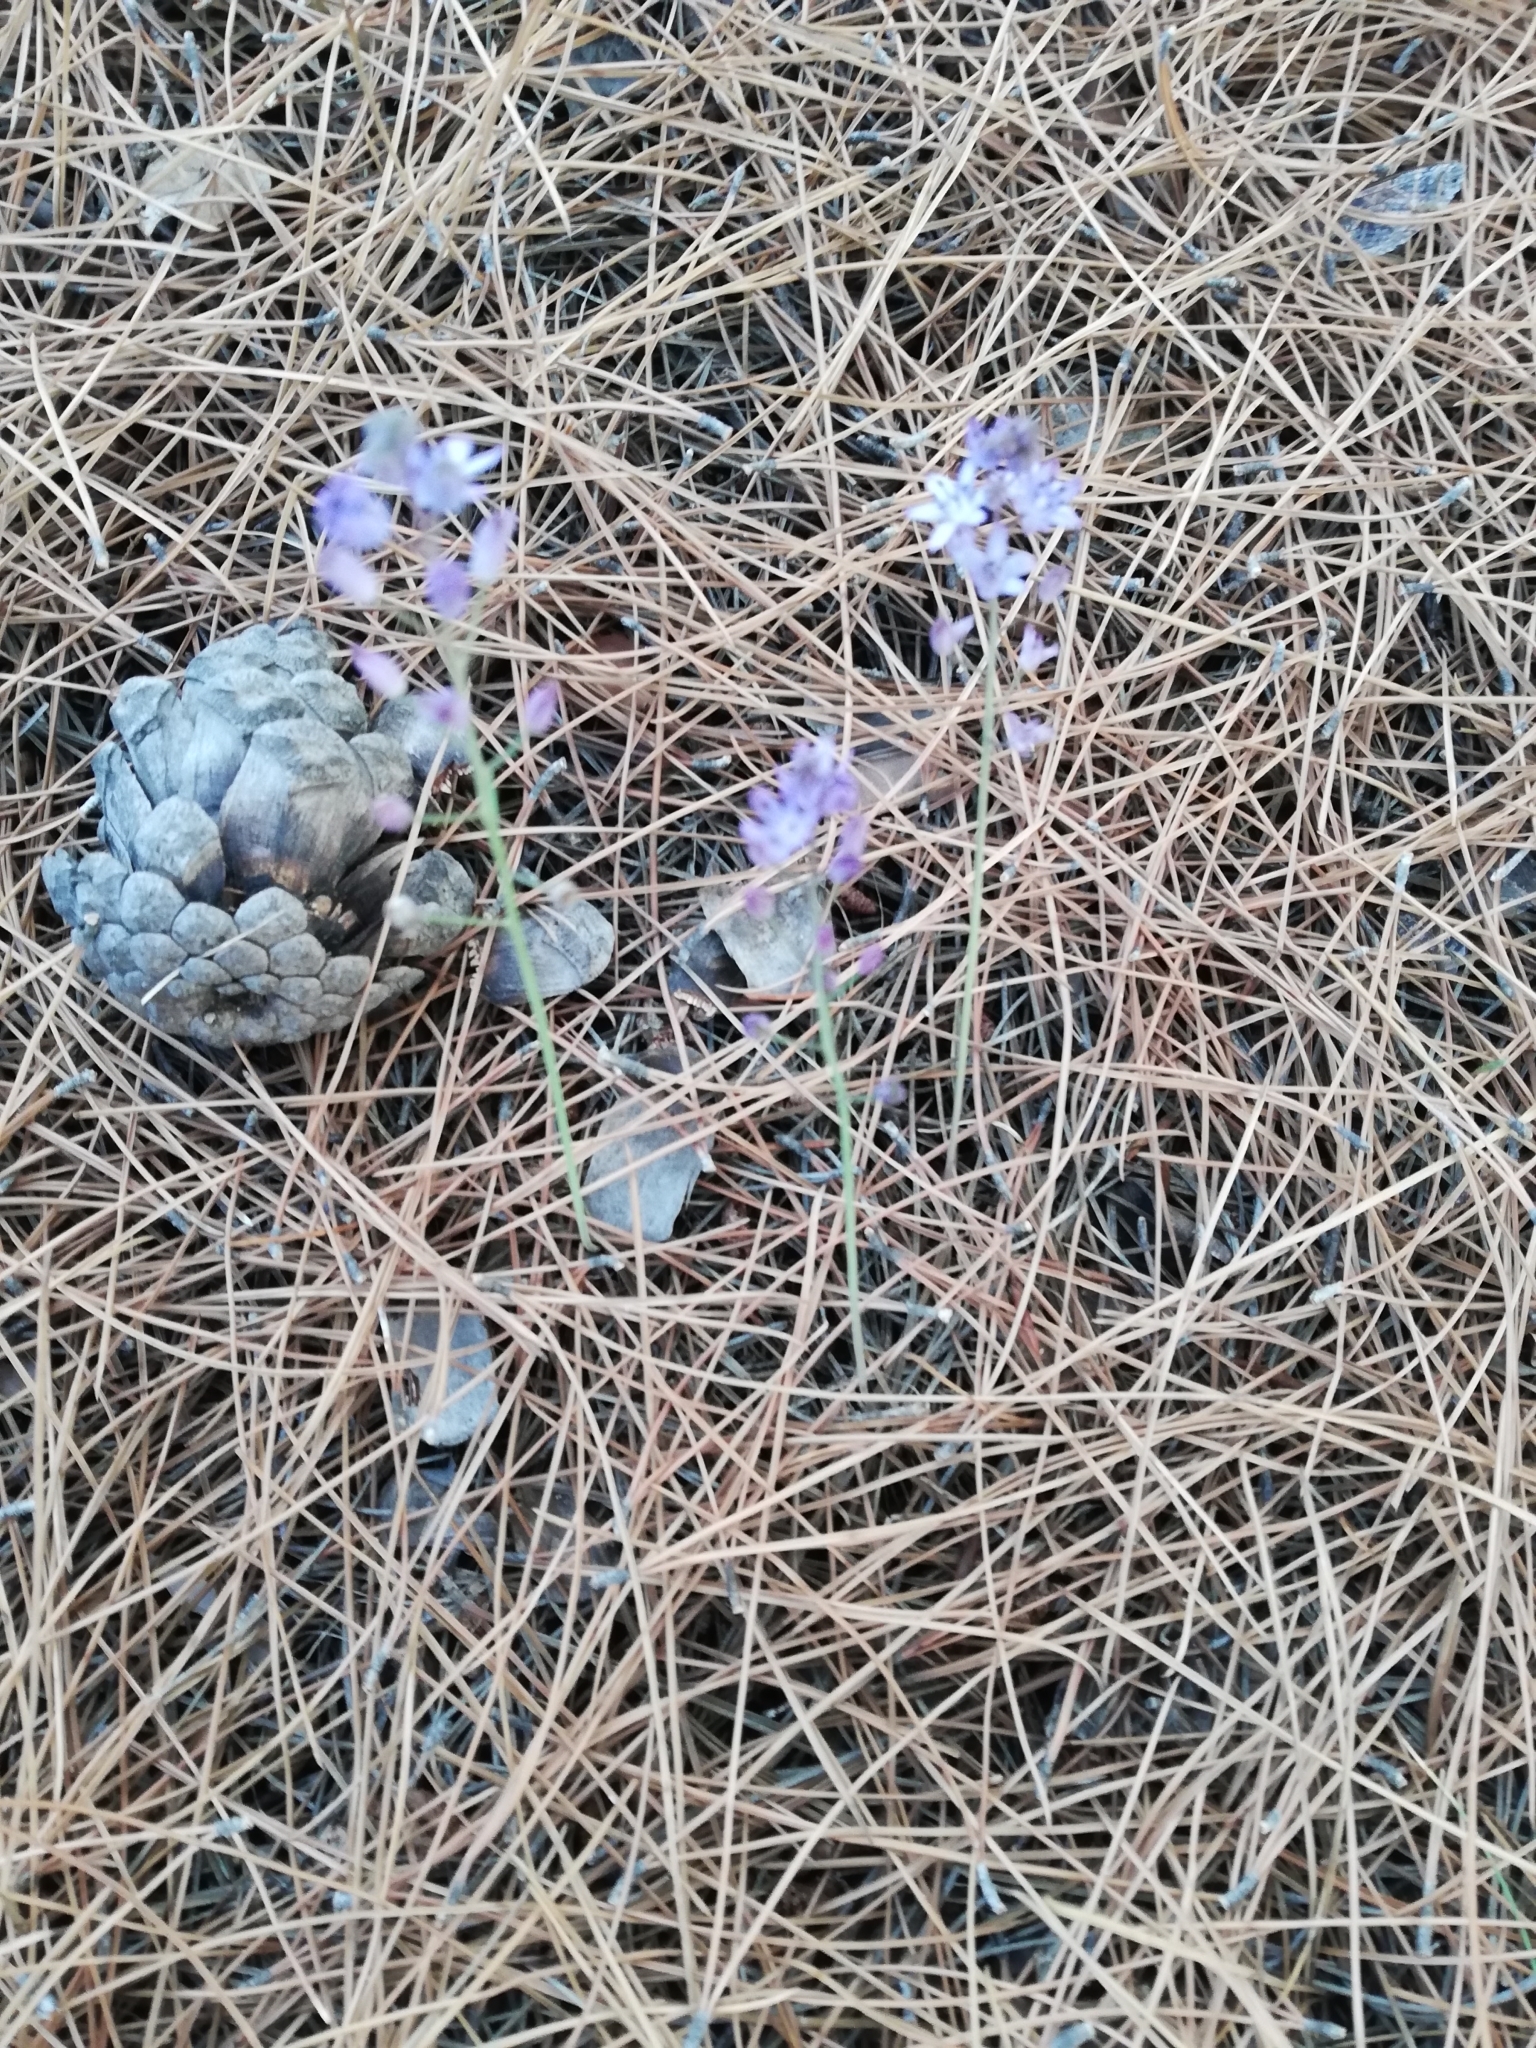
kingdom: Plantae
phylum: Tracheophyta
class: Liliopsida
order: Asparagales
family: Asparagaceae
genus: Prospero
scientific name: Prospero autumnale
